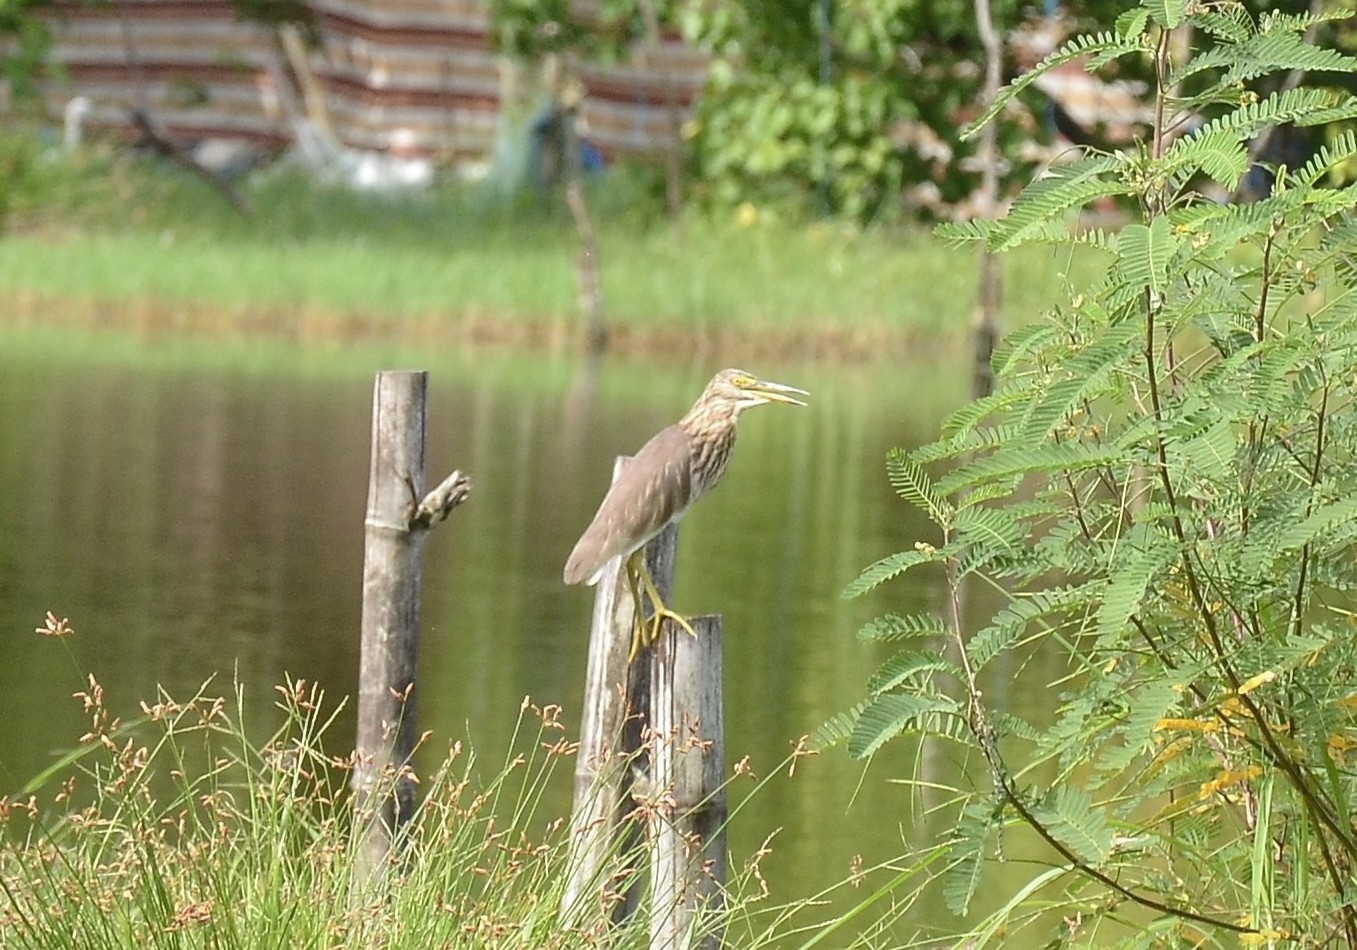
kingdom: Animalia
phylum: Chordata
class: Aves
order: Pelecaniformes
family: Ardeidae
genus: Ardeola
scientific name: Ardeola grayii
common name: Indian pond heron
